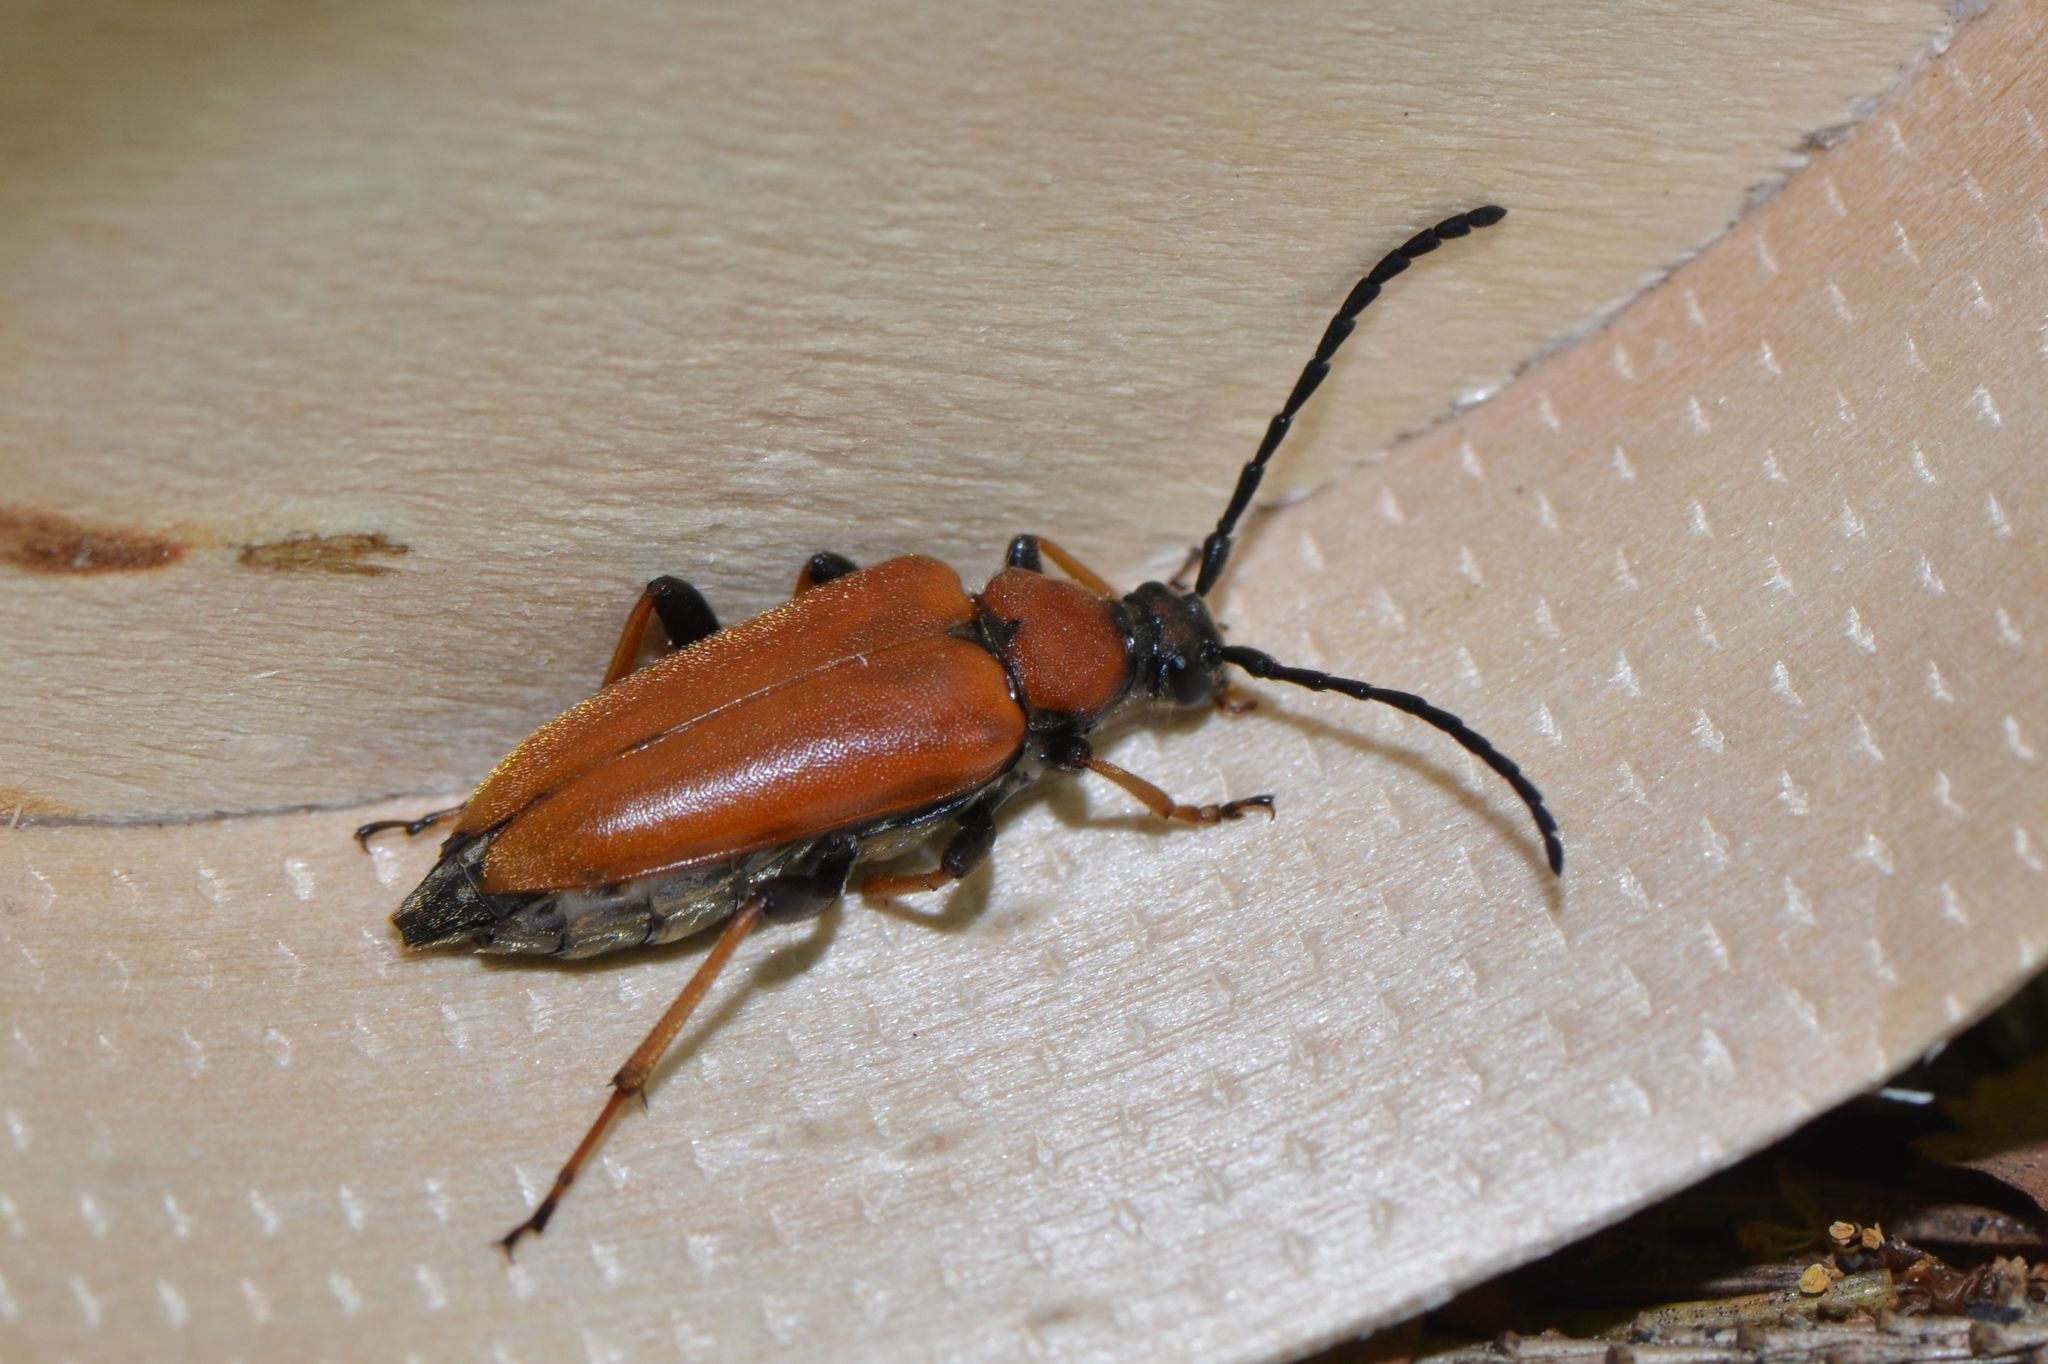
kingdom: Animalia
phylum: Arthropoda
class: Insecta
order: Coleoptera
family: Cerambycidae
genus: Stictoleptura
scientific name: Stictoleptura rubra
